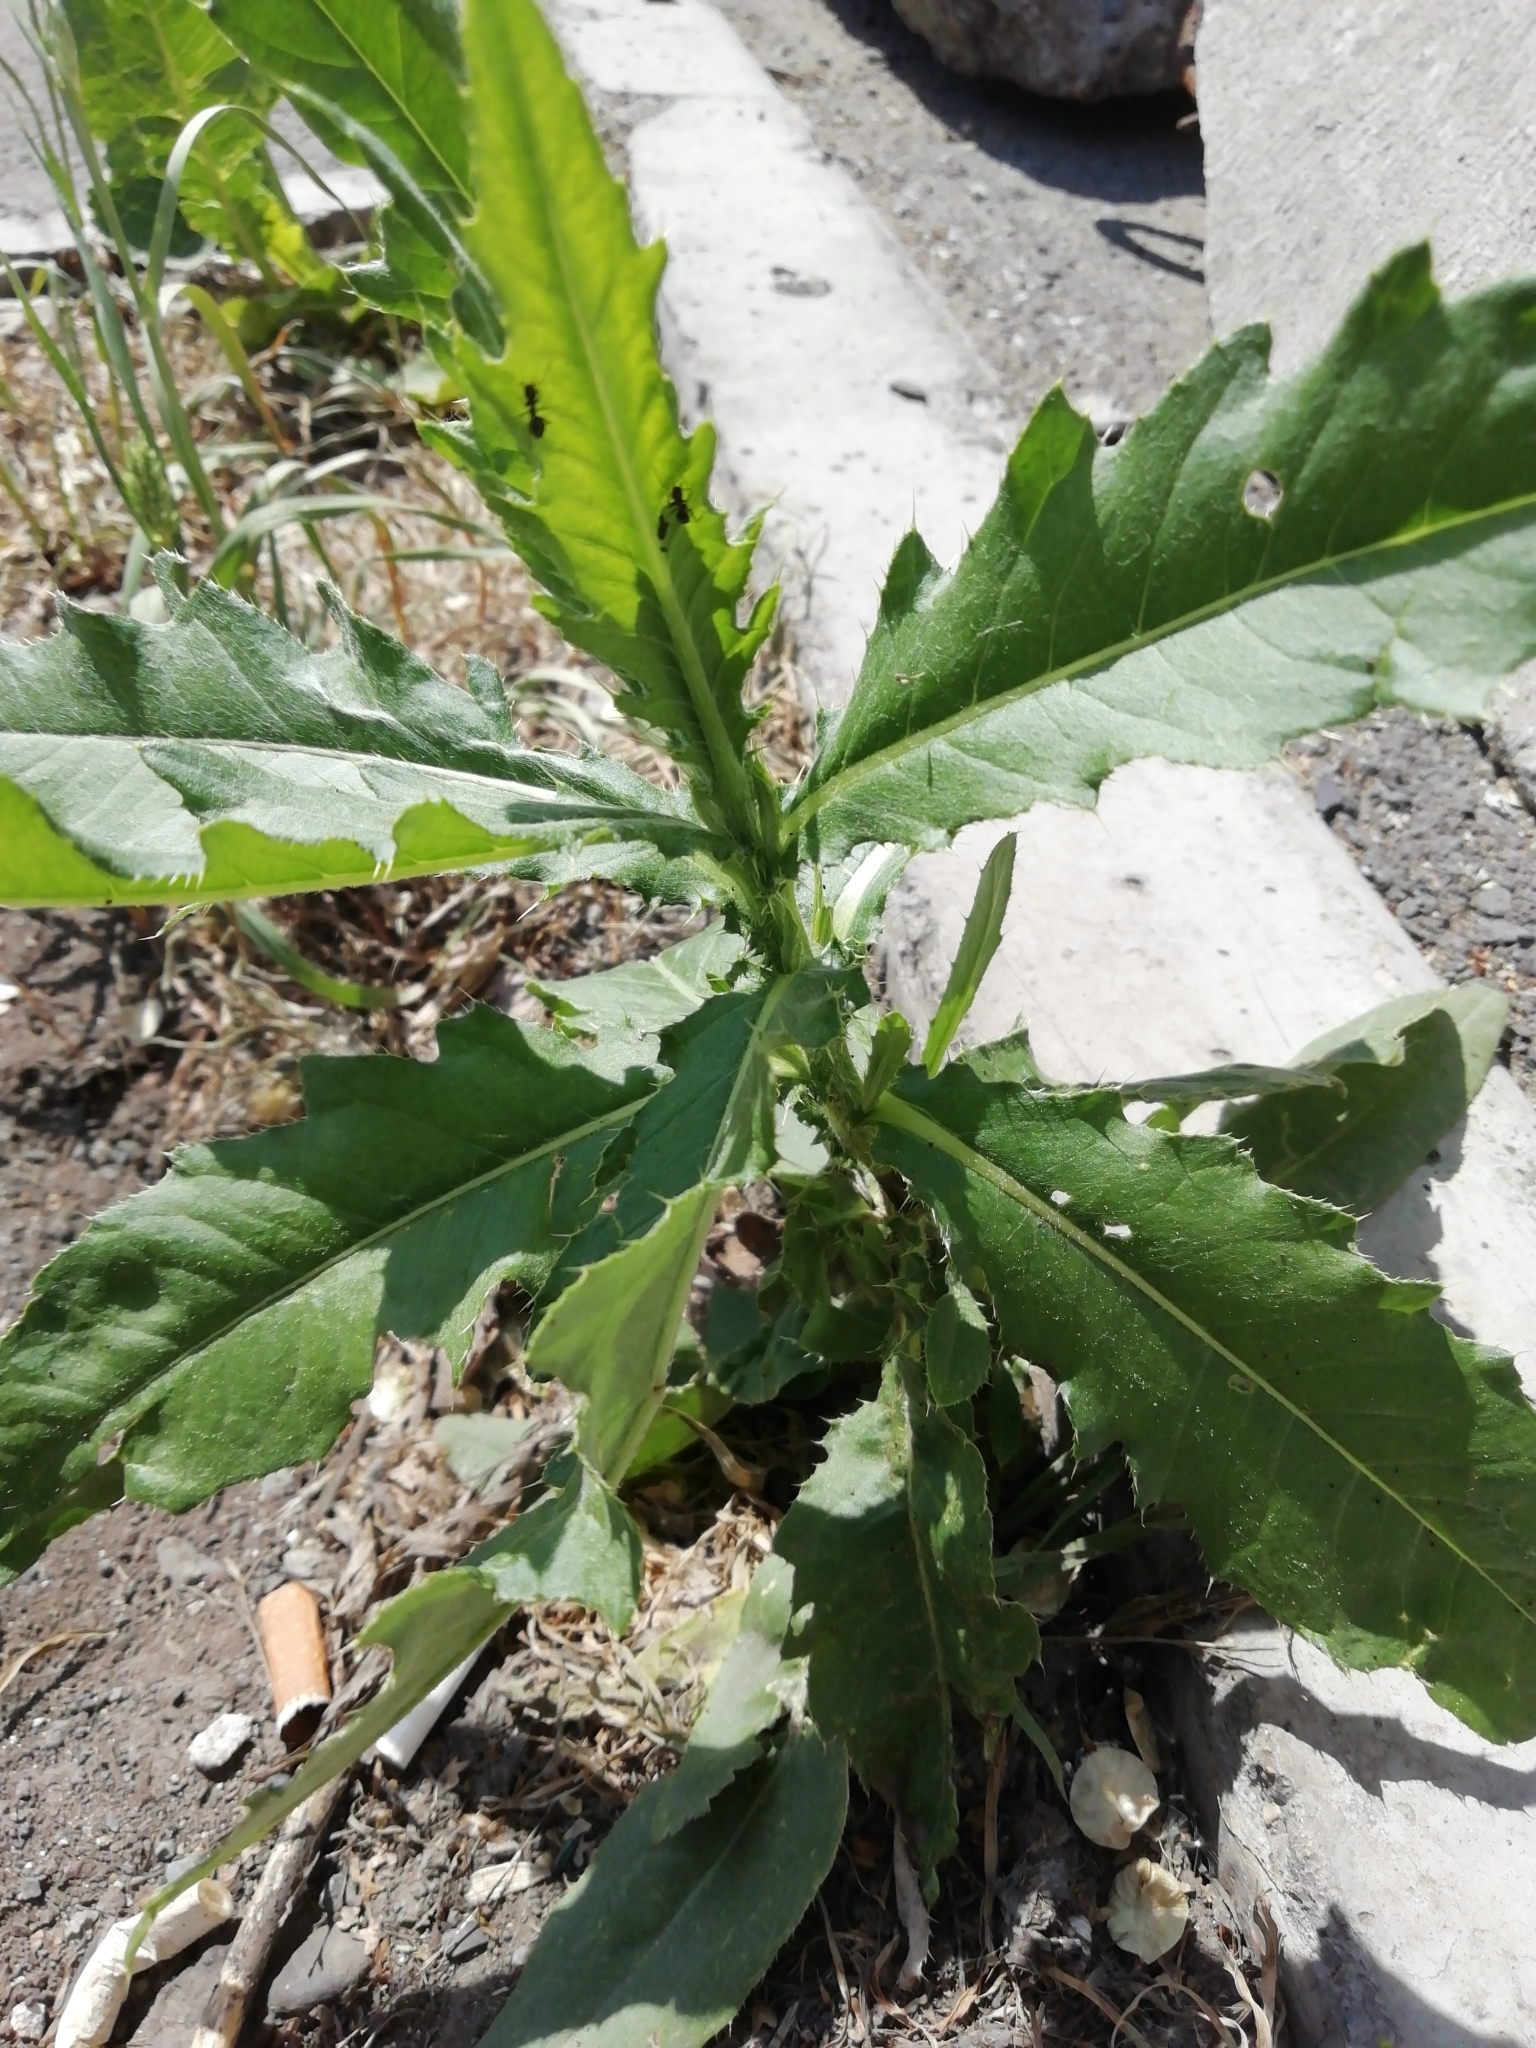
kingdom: Plantae
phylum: Tracheophyta
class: Magnoliopsida
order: Asterales
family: Asteraceae
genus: Cirsium
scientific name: Cirsium arvense
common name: Creeping thistle
